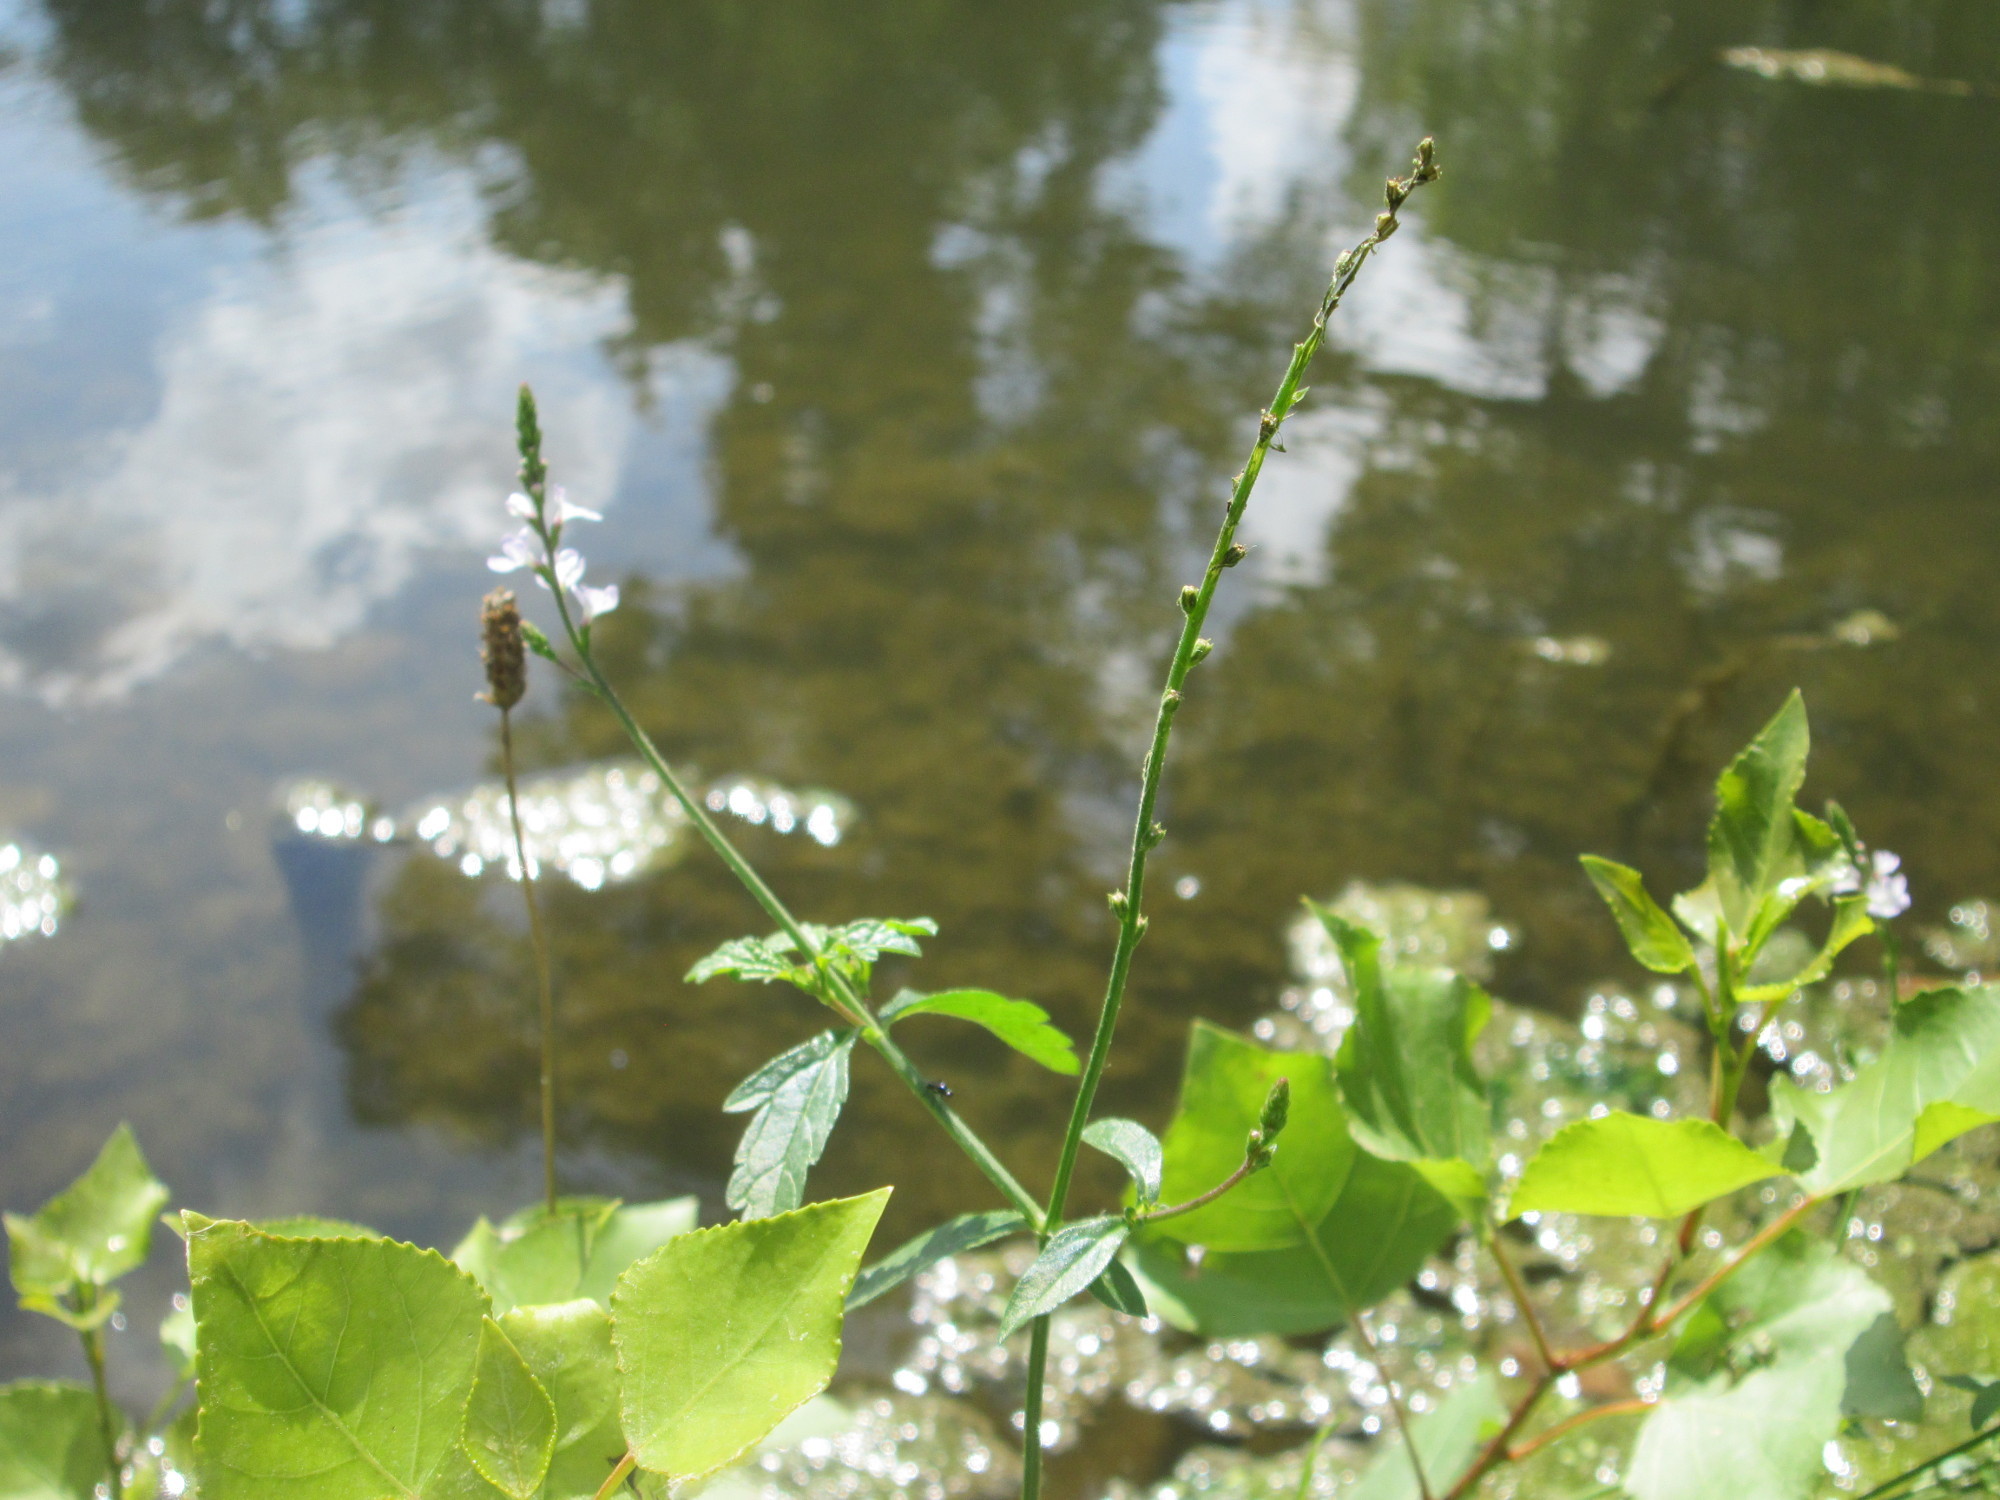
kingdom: Plantae
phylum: Tracheophyta
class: Magnoliopsida
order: Lamiales
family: Verbenaceae
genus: Verbena
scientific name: Verbena officinalis
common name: Vervain
